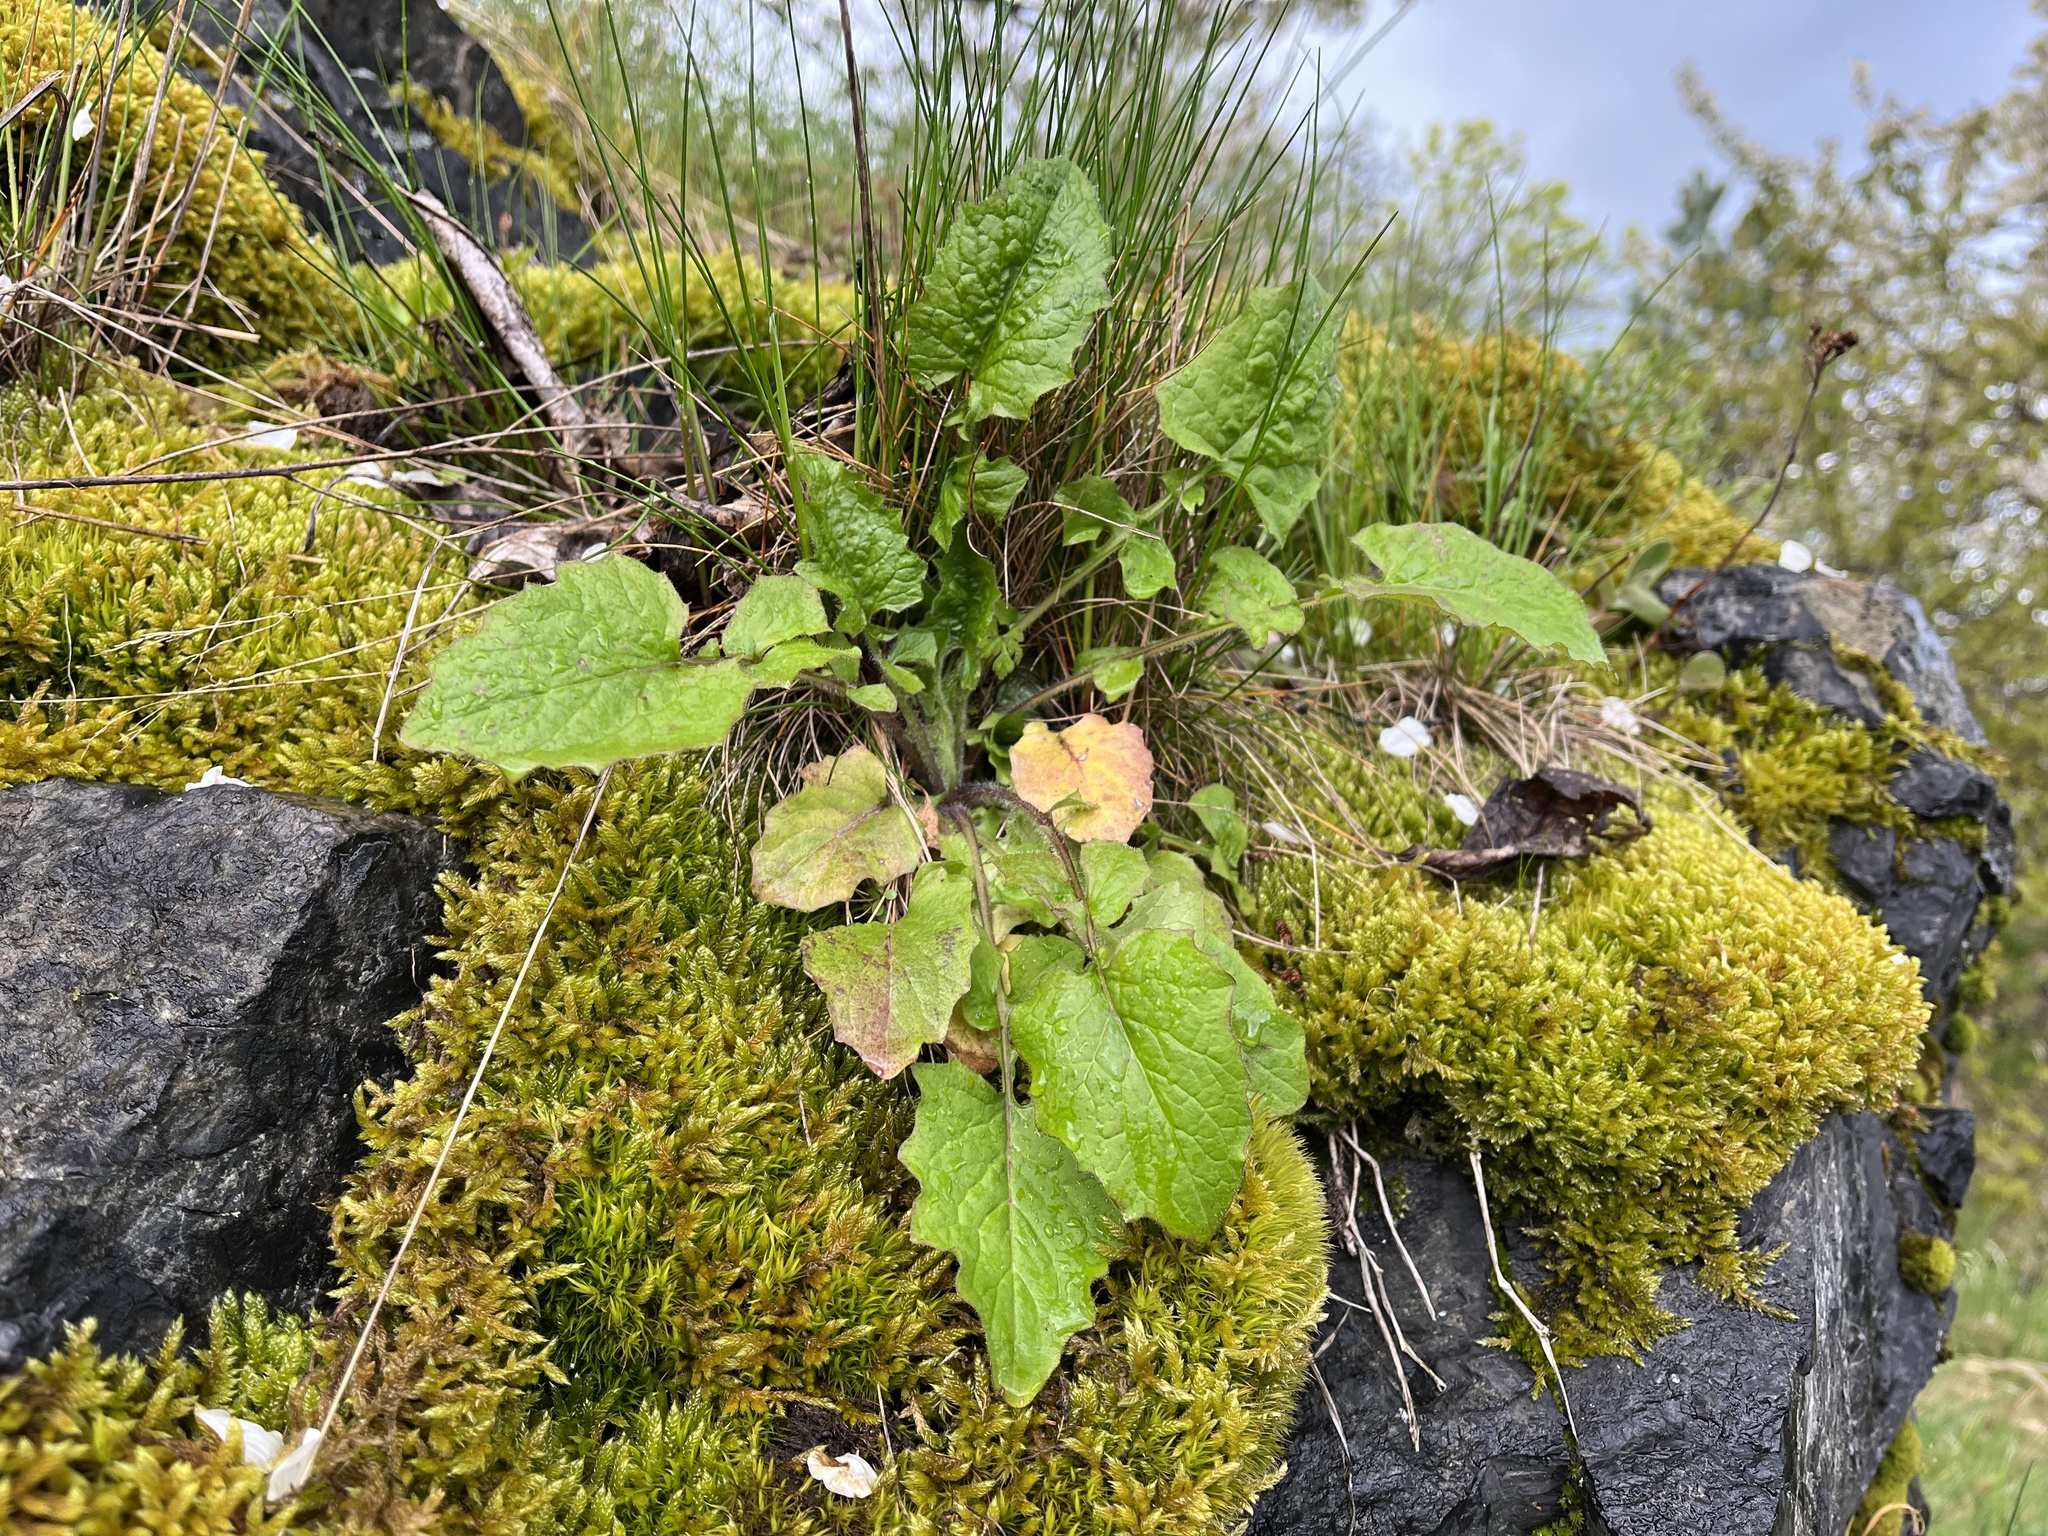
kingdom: Plantae
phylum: Tracheophyta
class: Magnoliopsida
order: Asterales
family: Asteraceae
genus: Lapsana
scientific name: Lapsana communis
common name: Nipplewort
